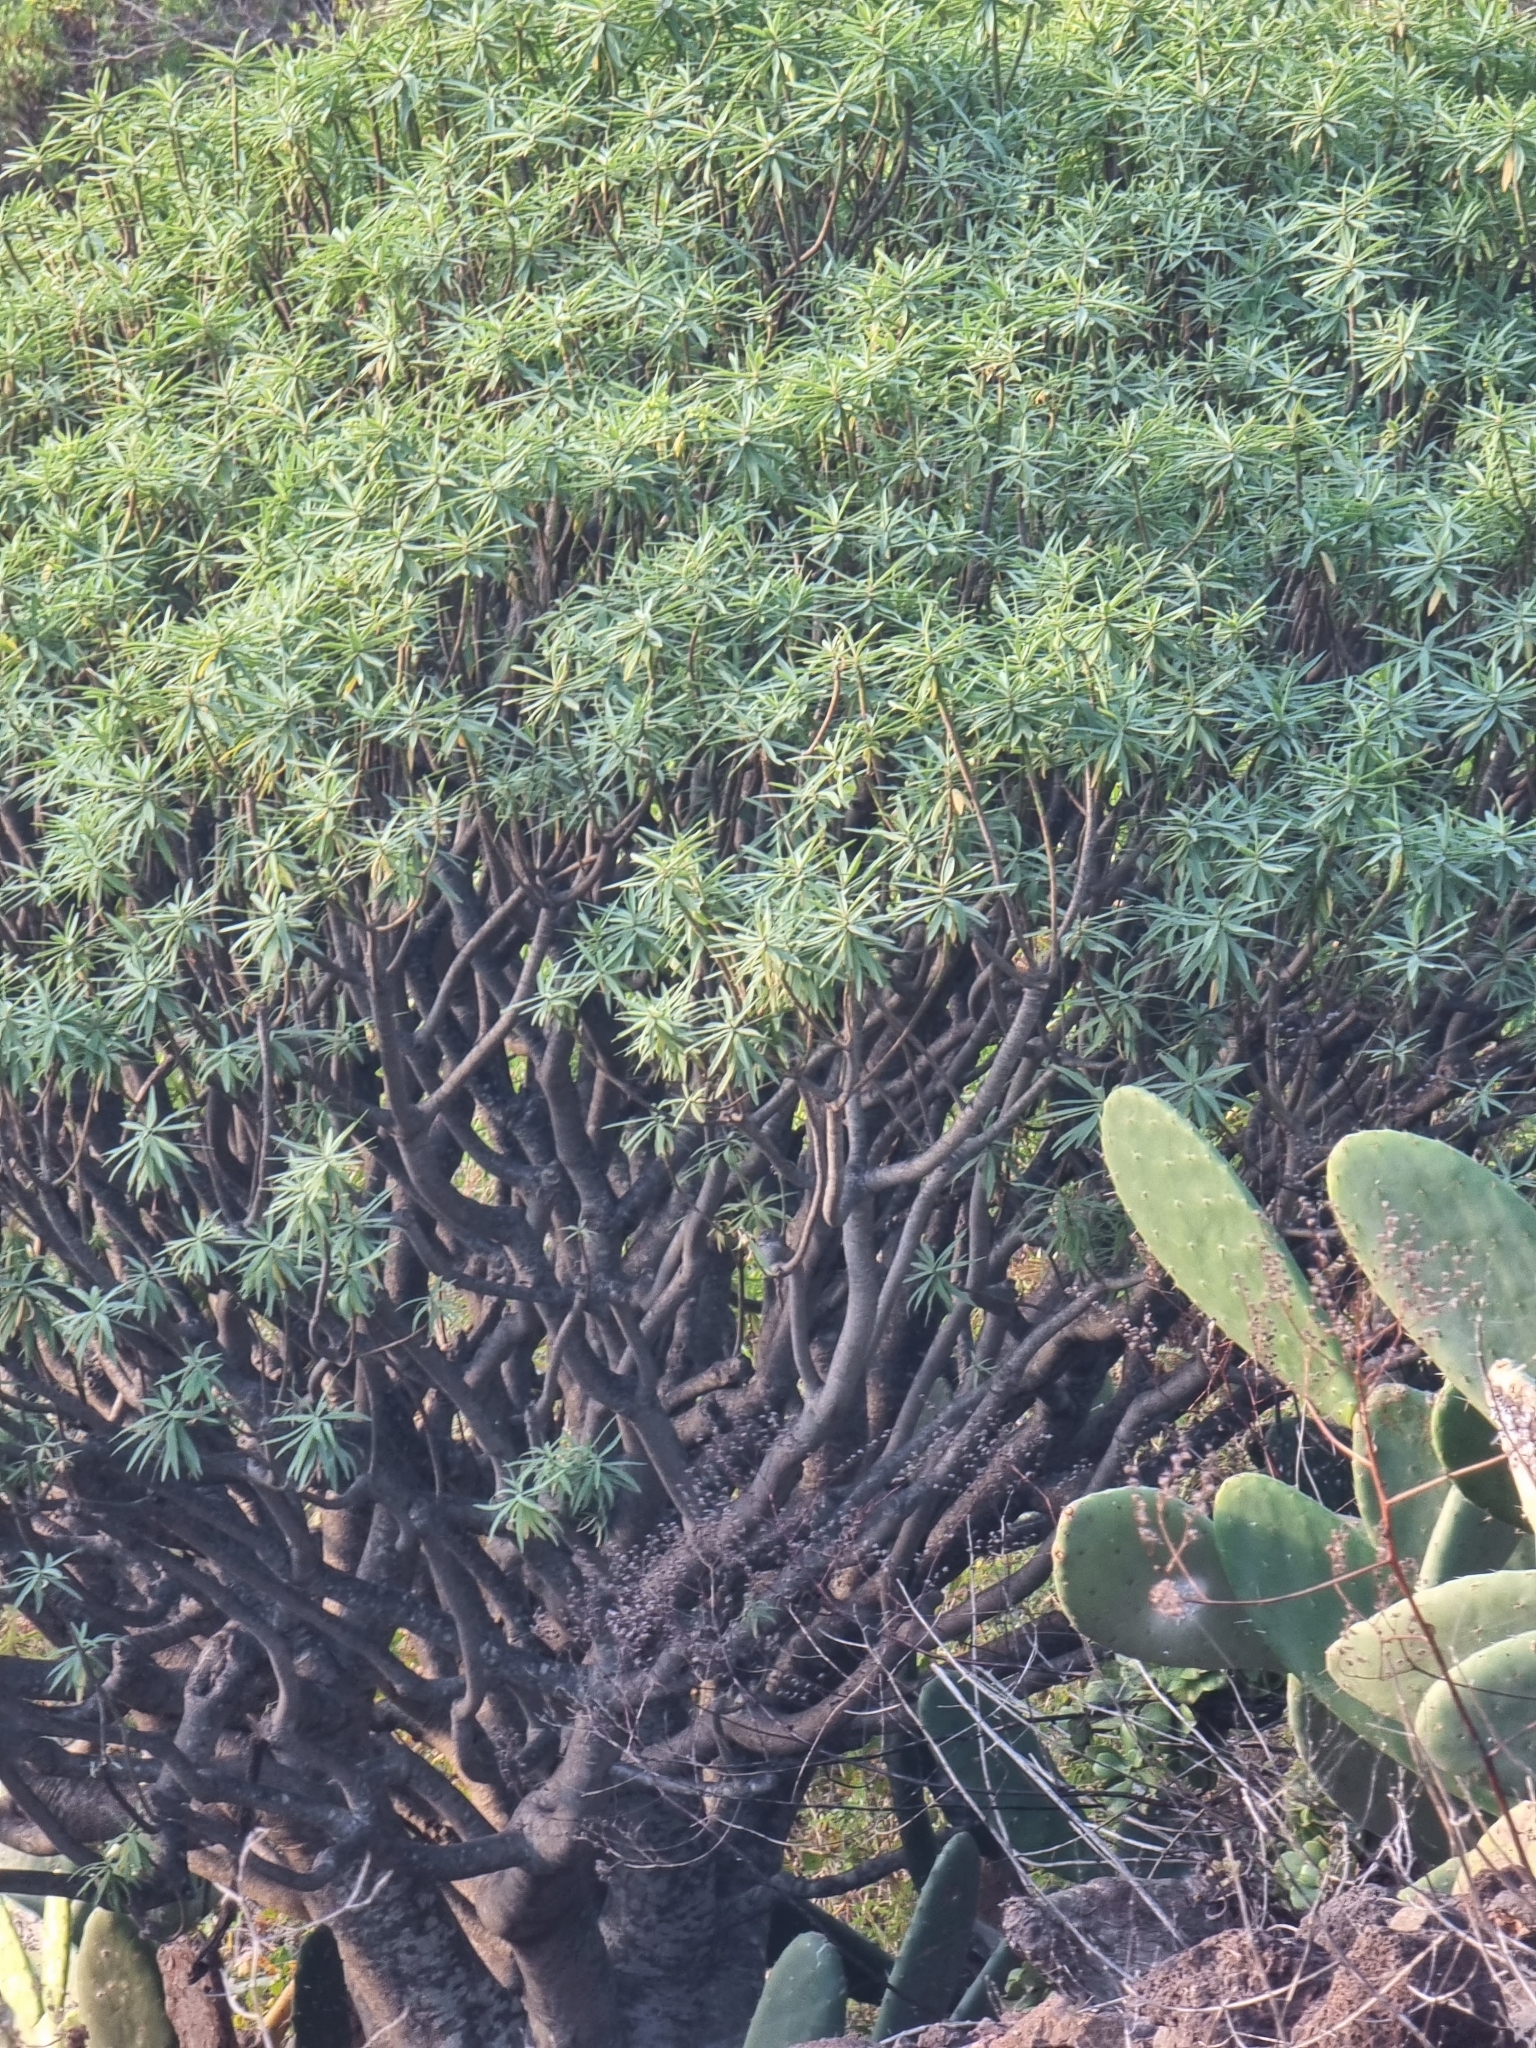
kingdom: Plantae
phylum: Tracheophyta
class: Magnoliopsida
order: Malpighiales
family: Euphorbiaceae
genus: Euphorbia
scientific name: Euphorbia piscatoria
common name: Fish-stunning spurge
